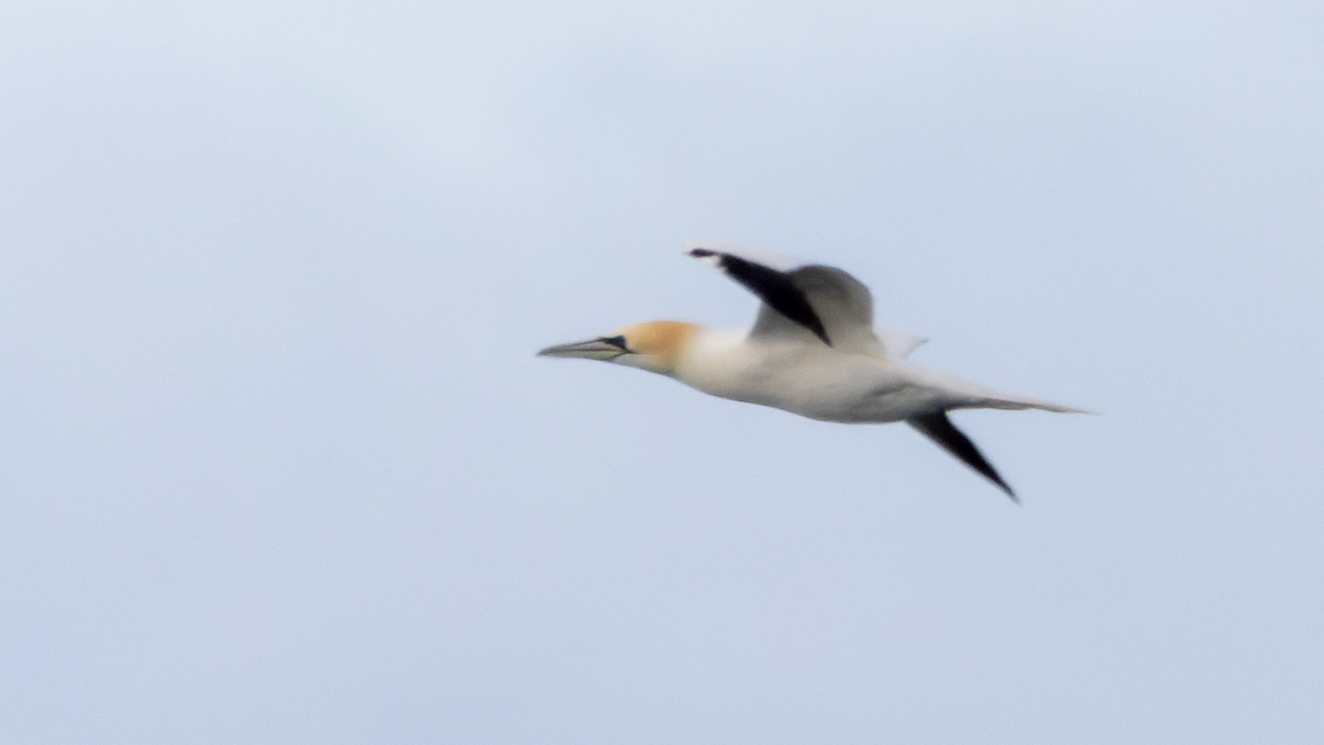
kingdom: Animalia
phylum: Chordata
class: Aves
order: Suliformes
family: Sulidae
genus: Morus
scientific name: Morus bassanus
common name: Northern gannet
